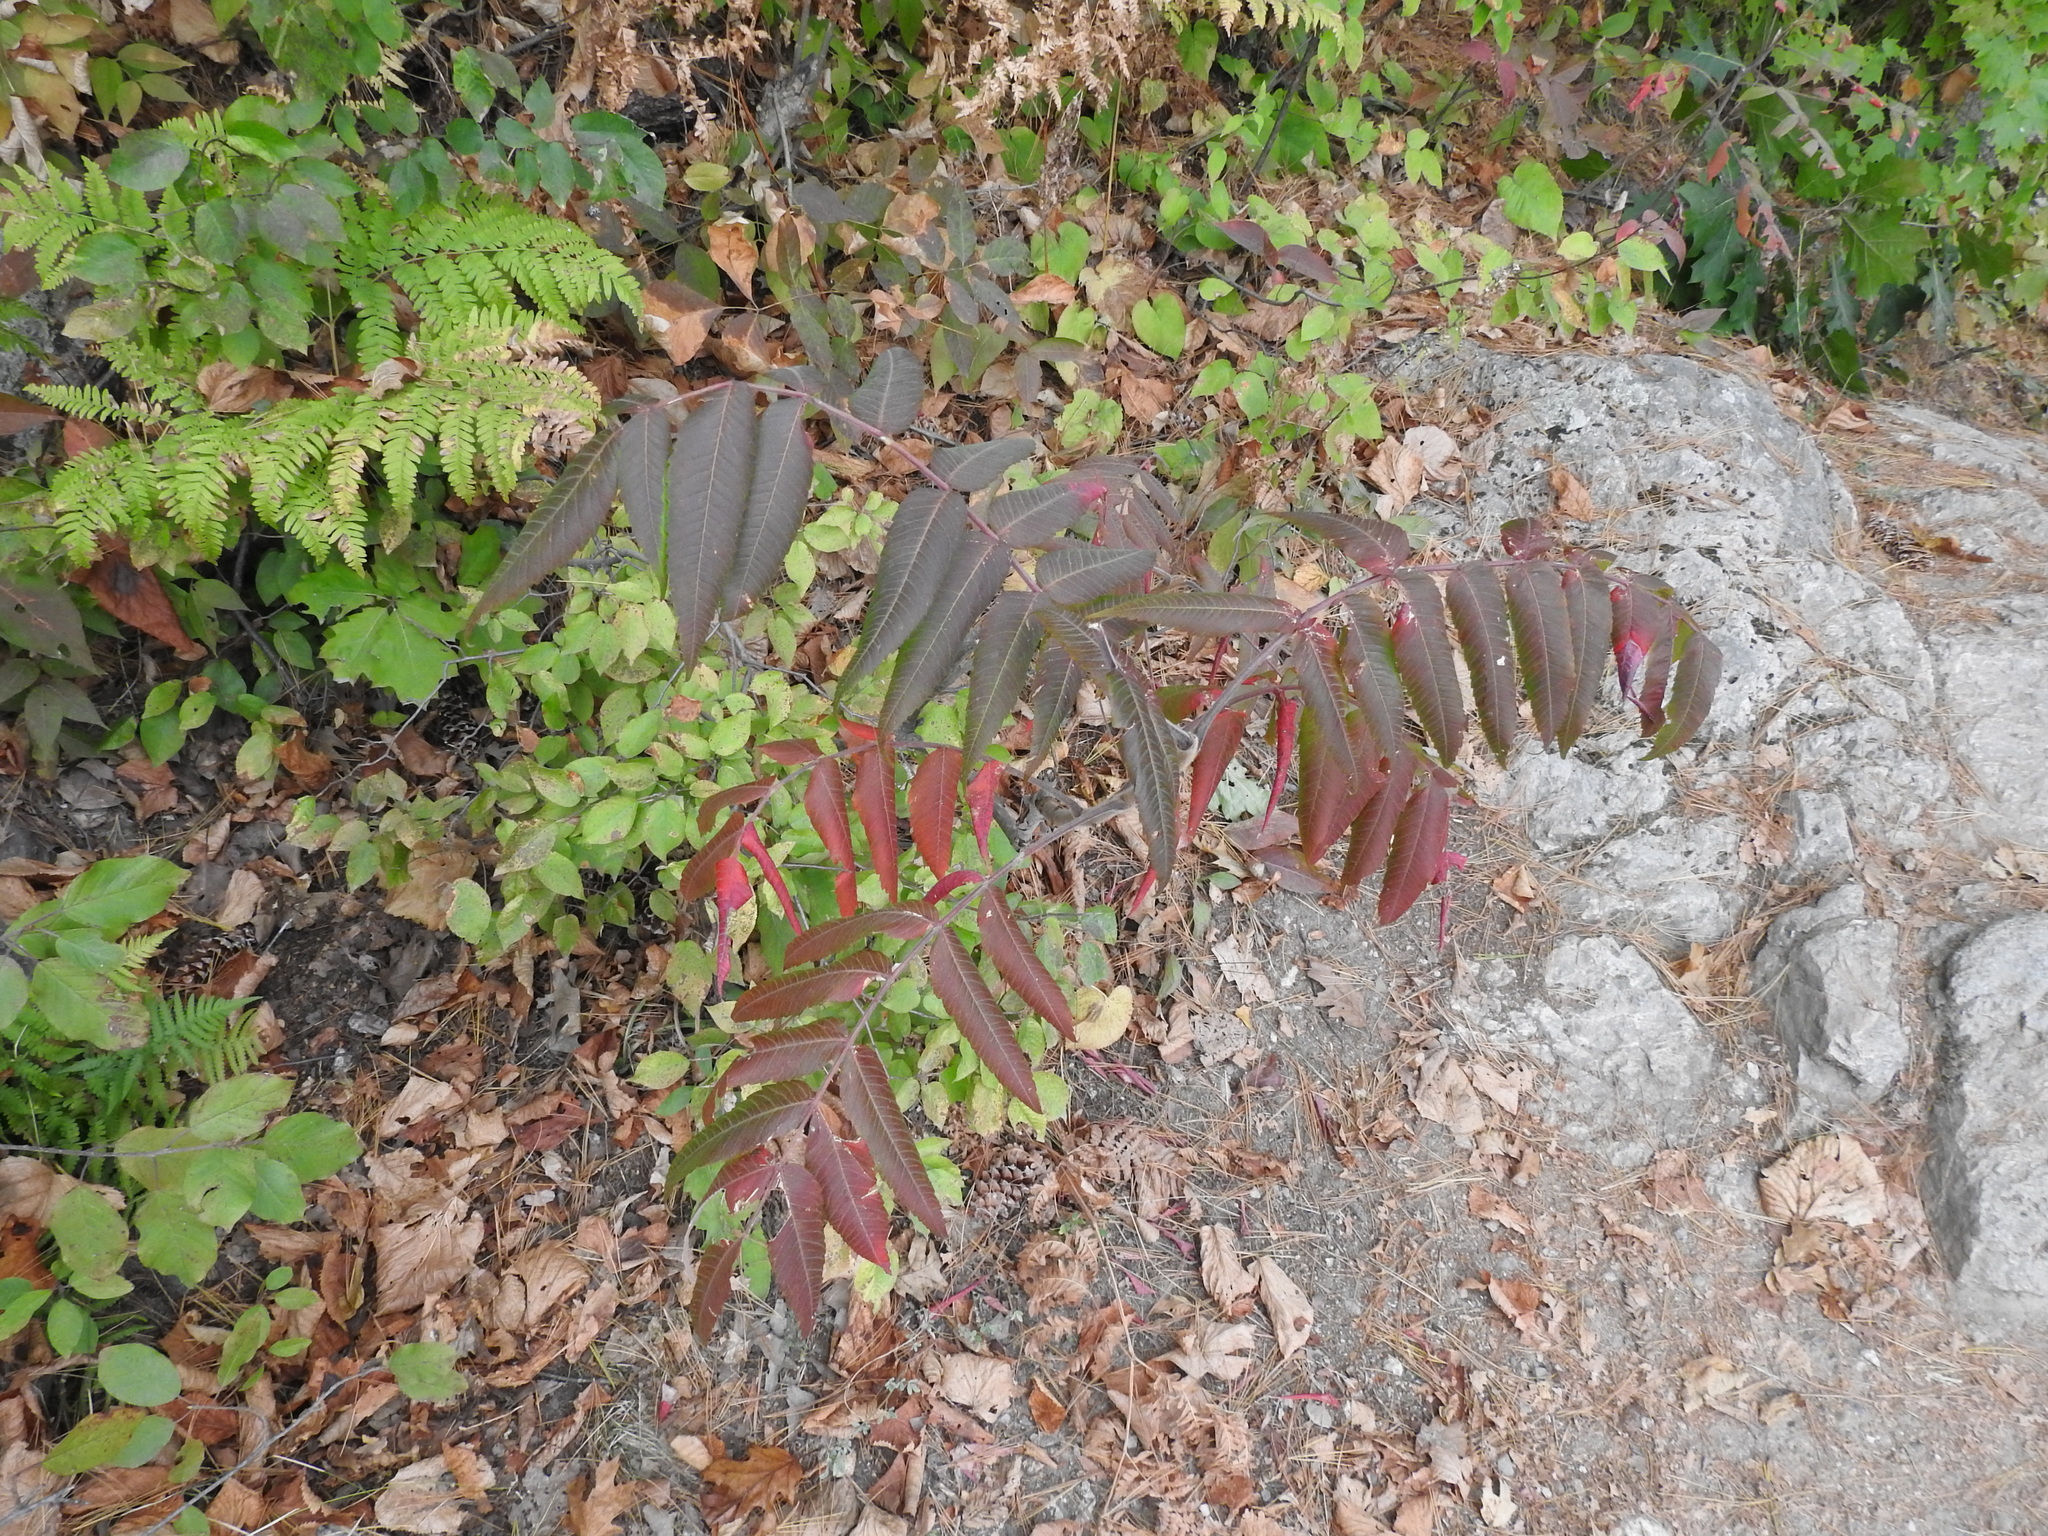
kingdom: Plantae
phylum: Tracheophyta
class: Magnoliopsida
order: Sapindales
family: Anacardiaceae
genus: Rhus
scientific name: Rhus typhina
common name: Staghorn sumac
